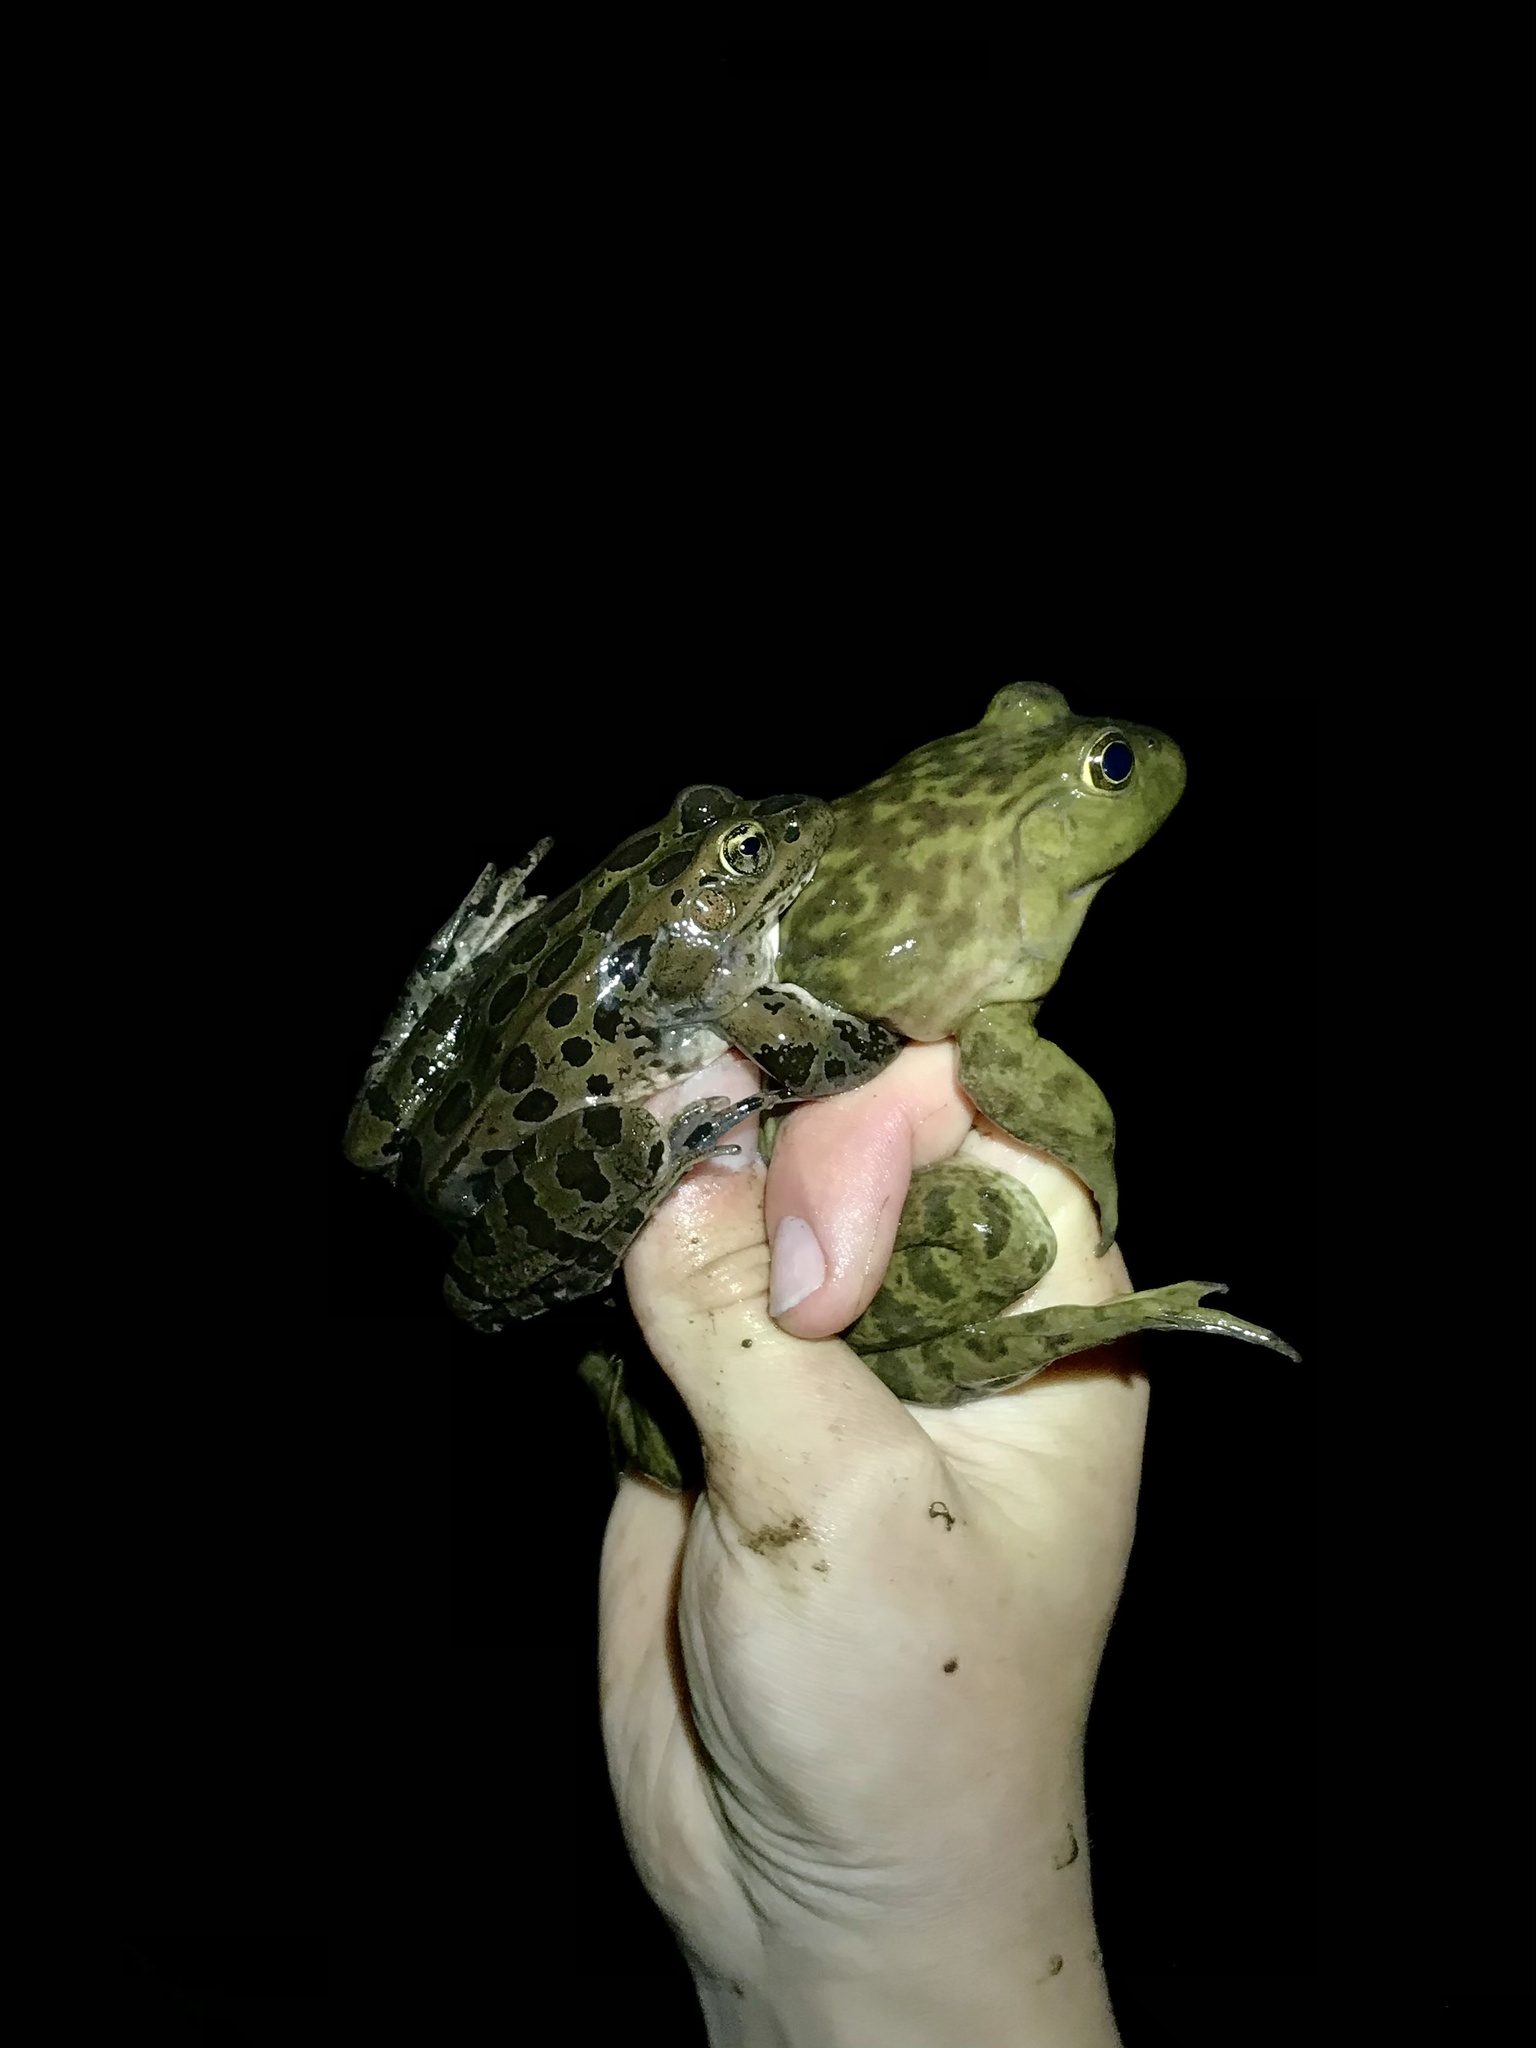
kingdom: Animalia
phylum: Chordata
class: Amphibia
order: Anura
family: Ranidae
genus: Lithobates
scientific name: Lithobates pipiens
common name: Northern leopard frog
